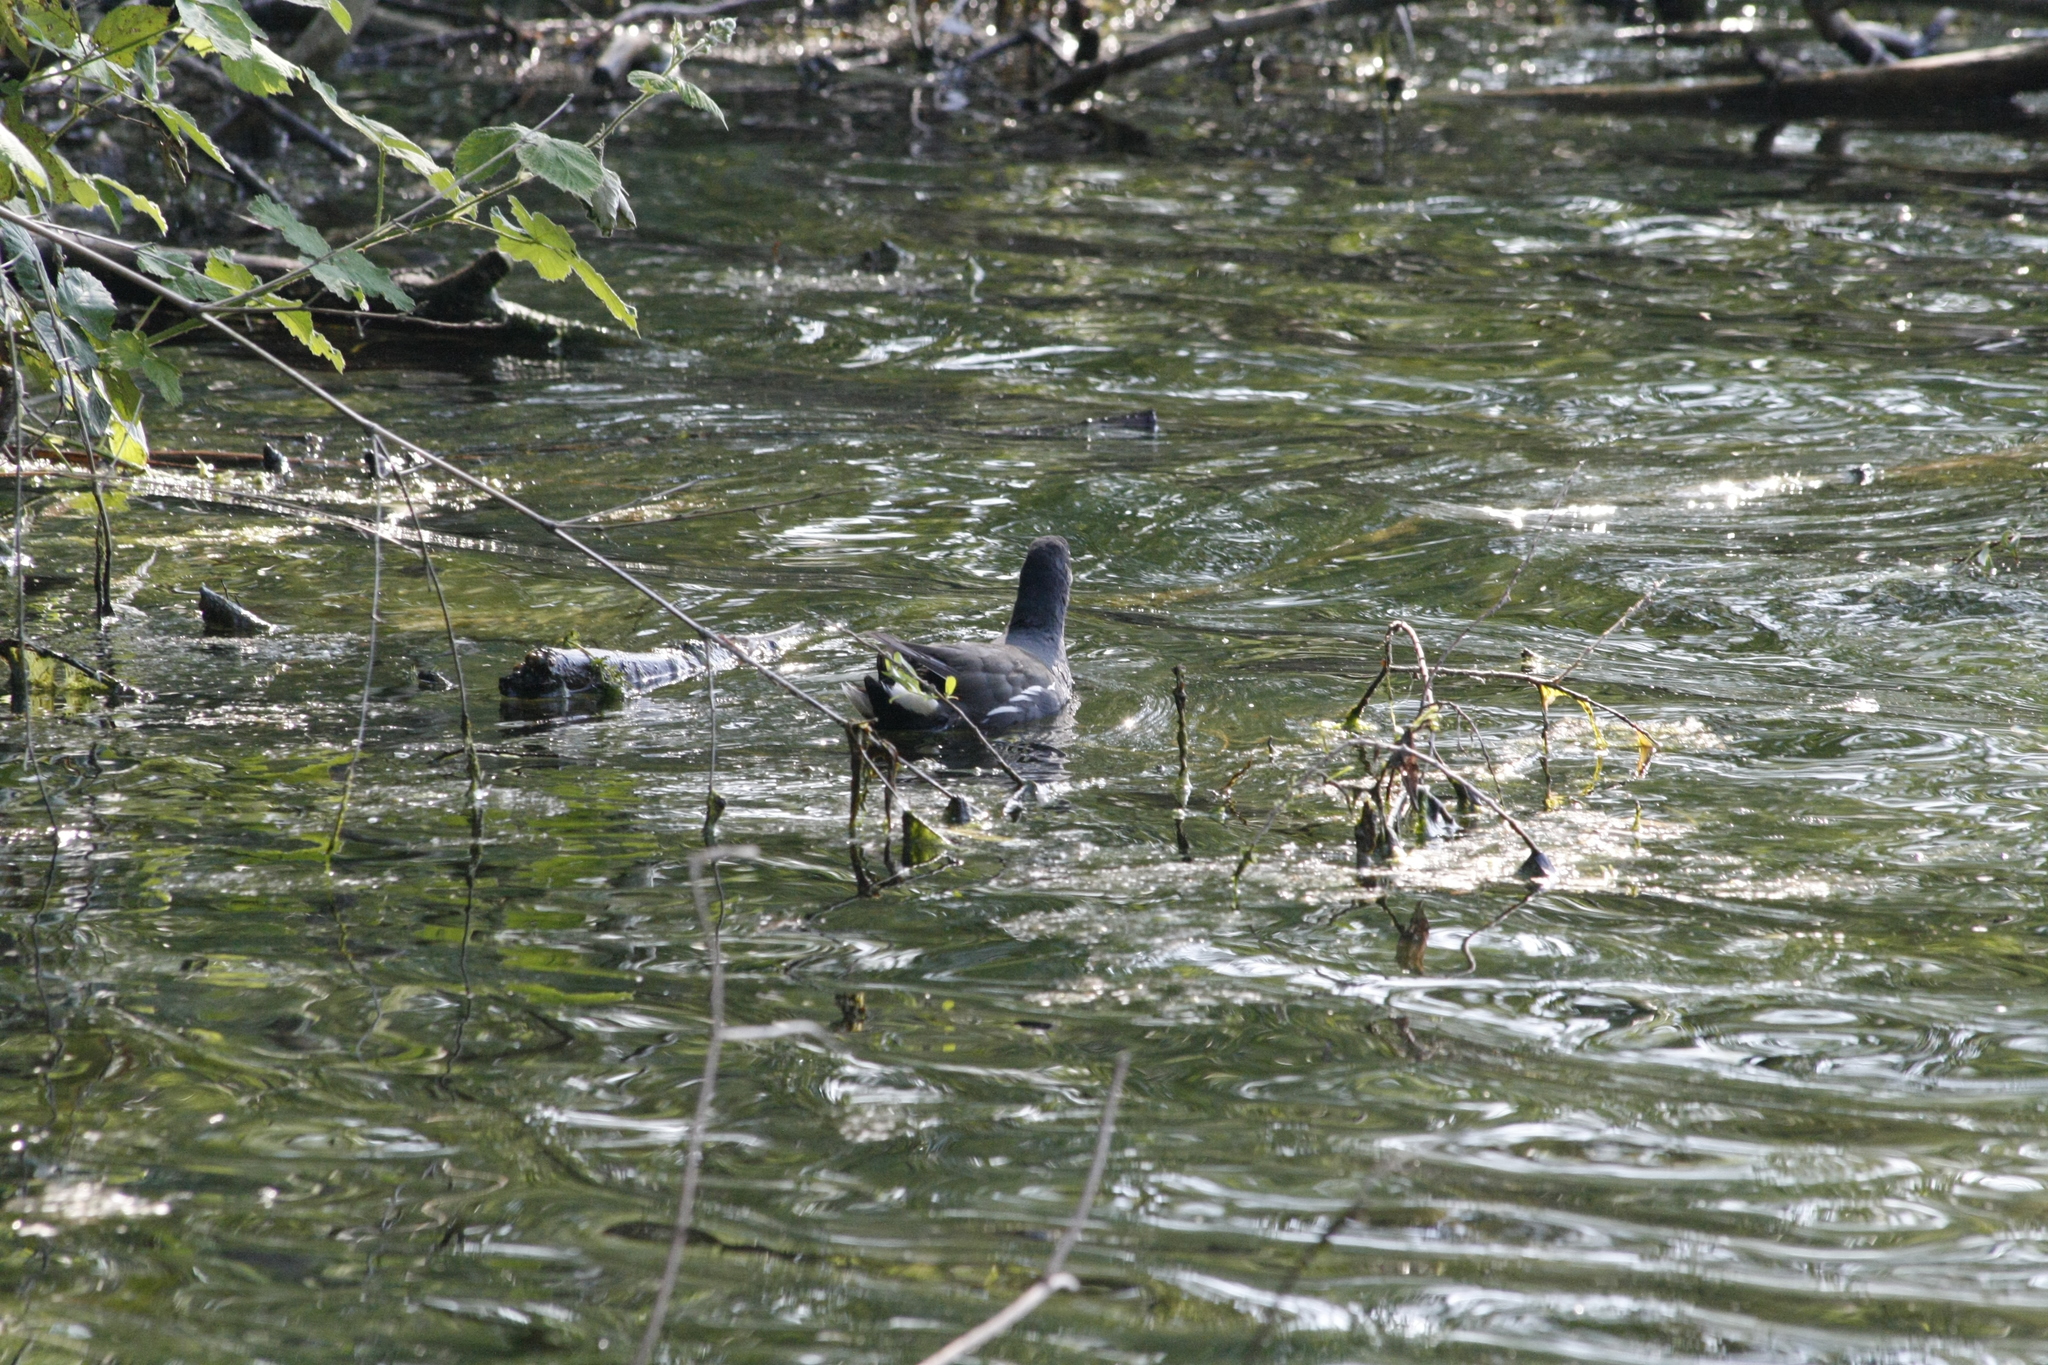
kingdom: Animalia
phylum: Chordata
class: Aves
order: Gruiformes
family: Rallidae
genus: Gallinula
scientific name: Gallinula chloropus
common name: Common moorhen
